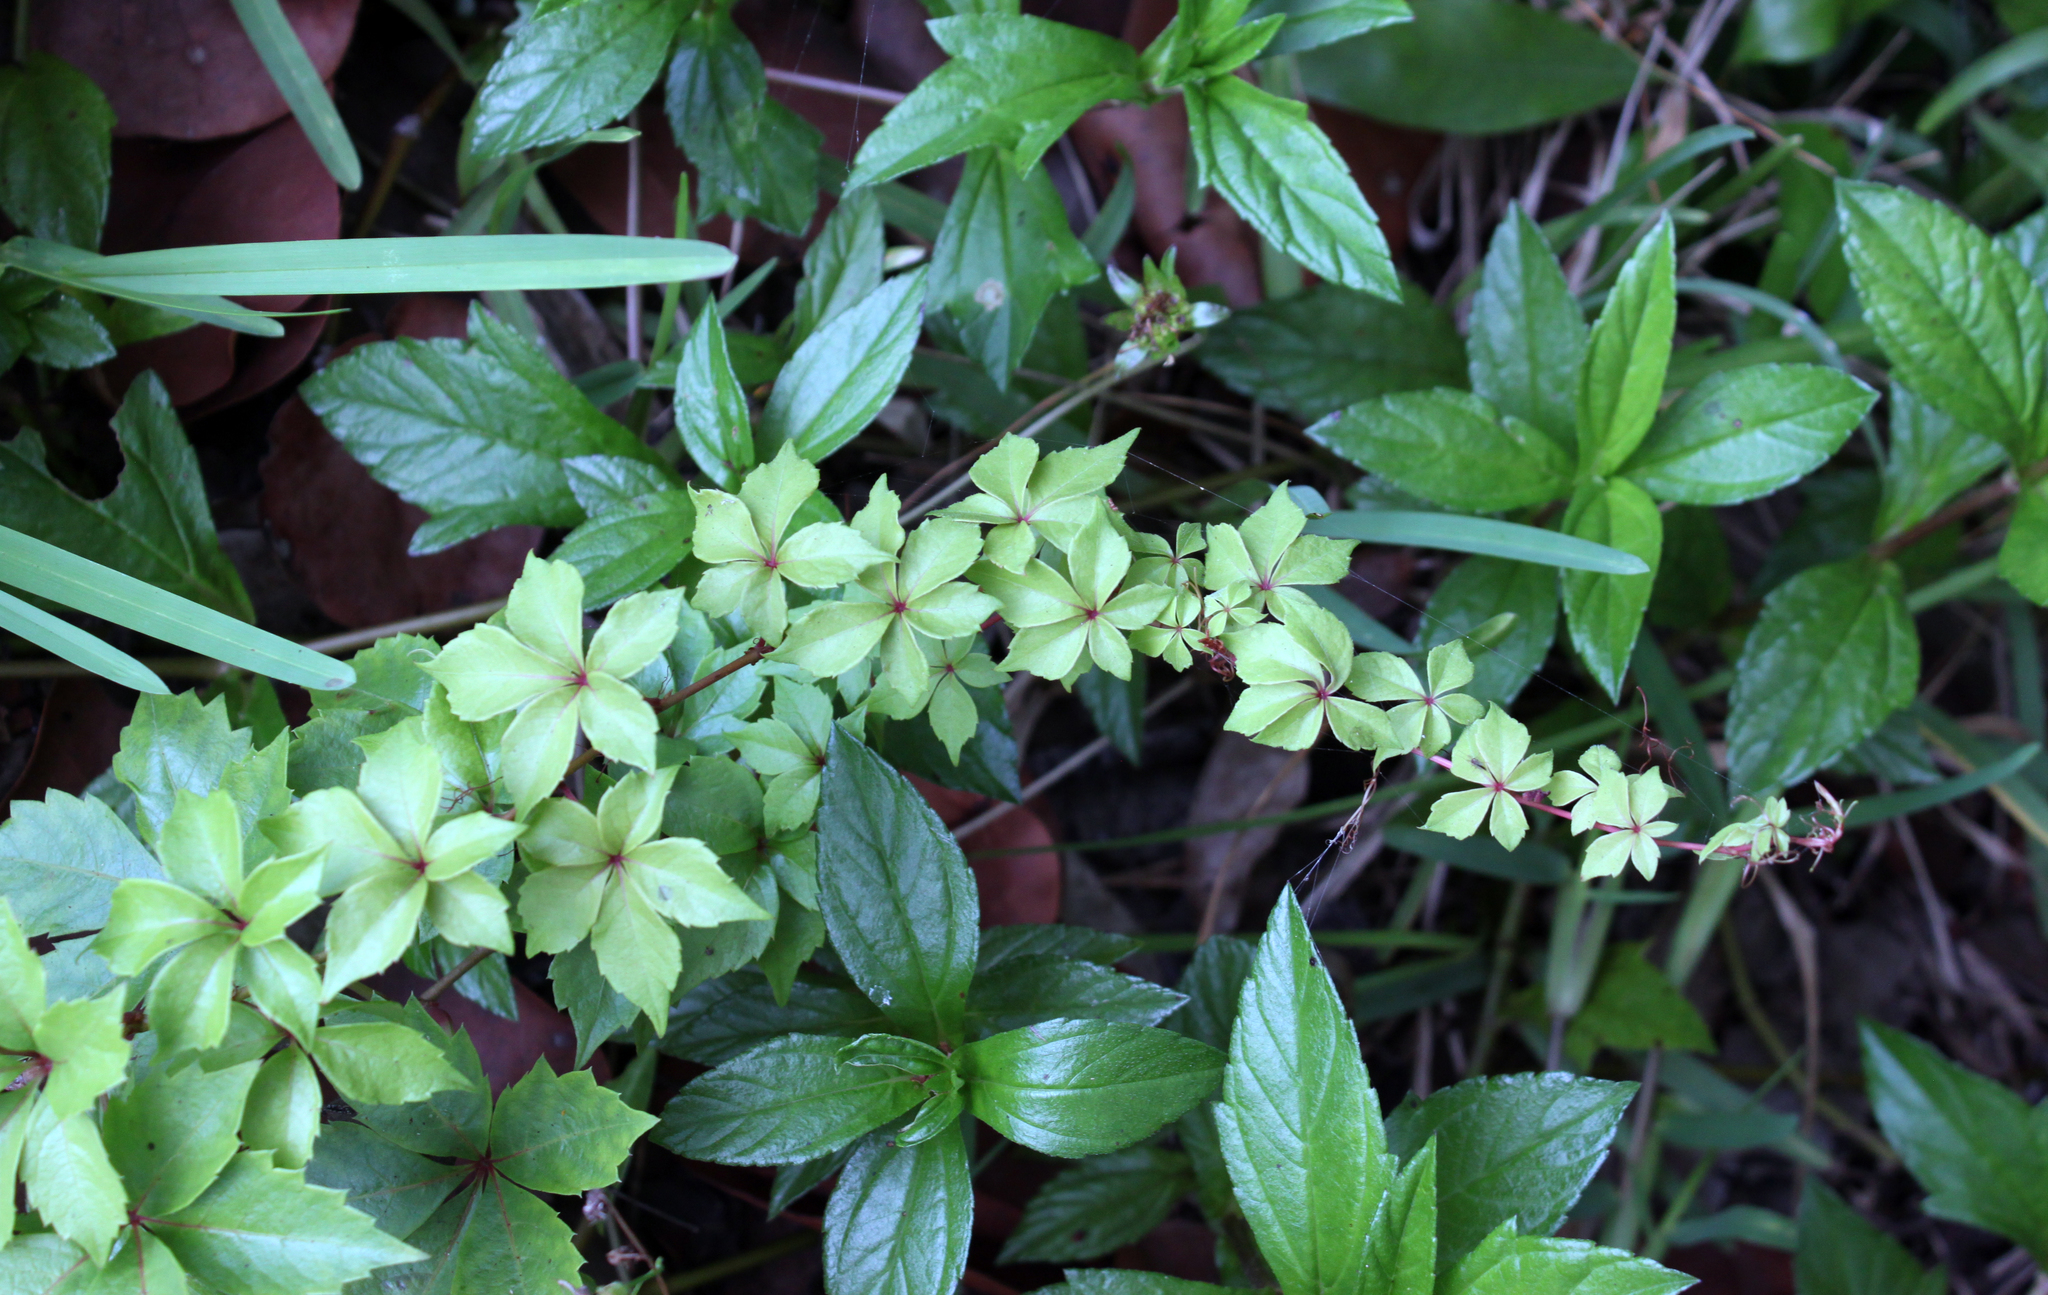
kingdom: Plantae
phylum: Tracheophyta
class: Magnoliopsida
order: Vitales
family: Vitaceae
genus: Parthenocissus
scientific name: Parthenocissus quinquefolia
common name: Virginia-creeper
